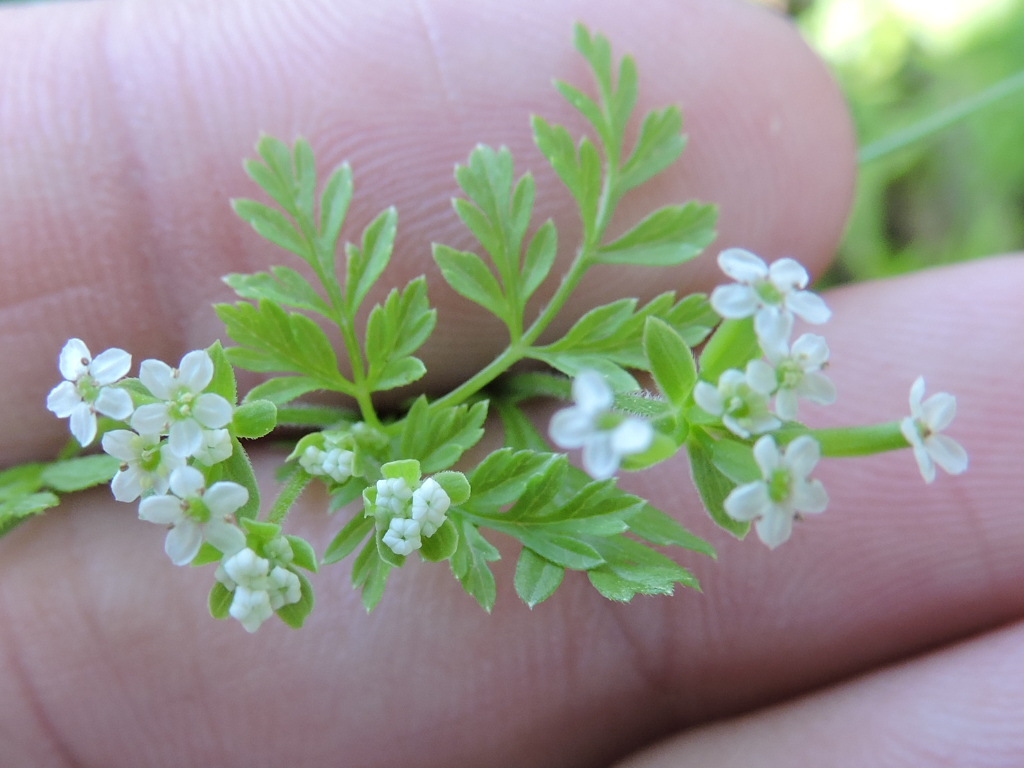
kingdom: Plantae
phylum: Tracheophyta
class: Magnoliopsida
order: Apiales
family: Apiaceae
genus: Chaerophyllum
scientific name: Chaerophyllum tainturieri
